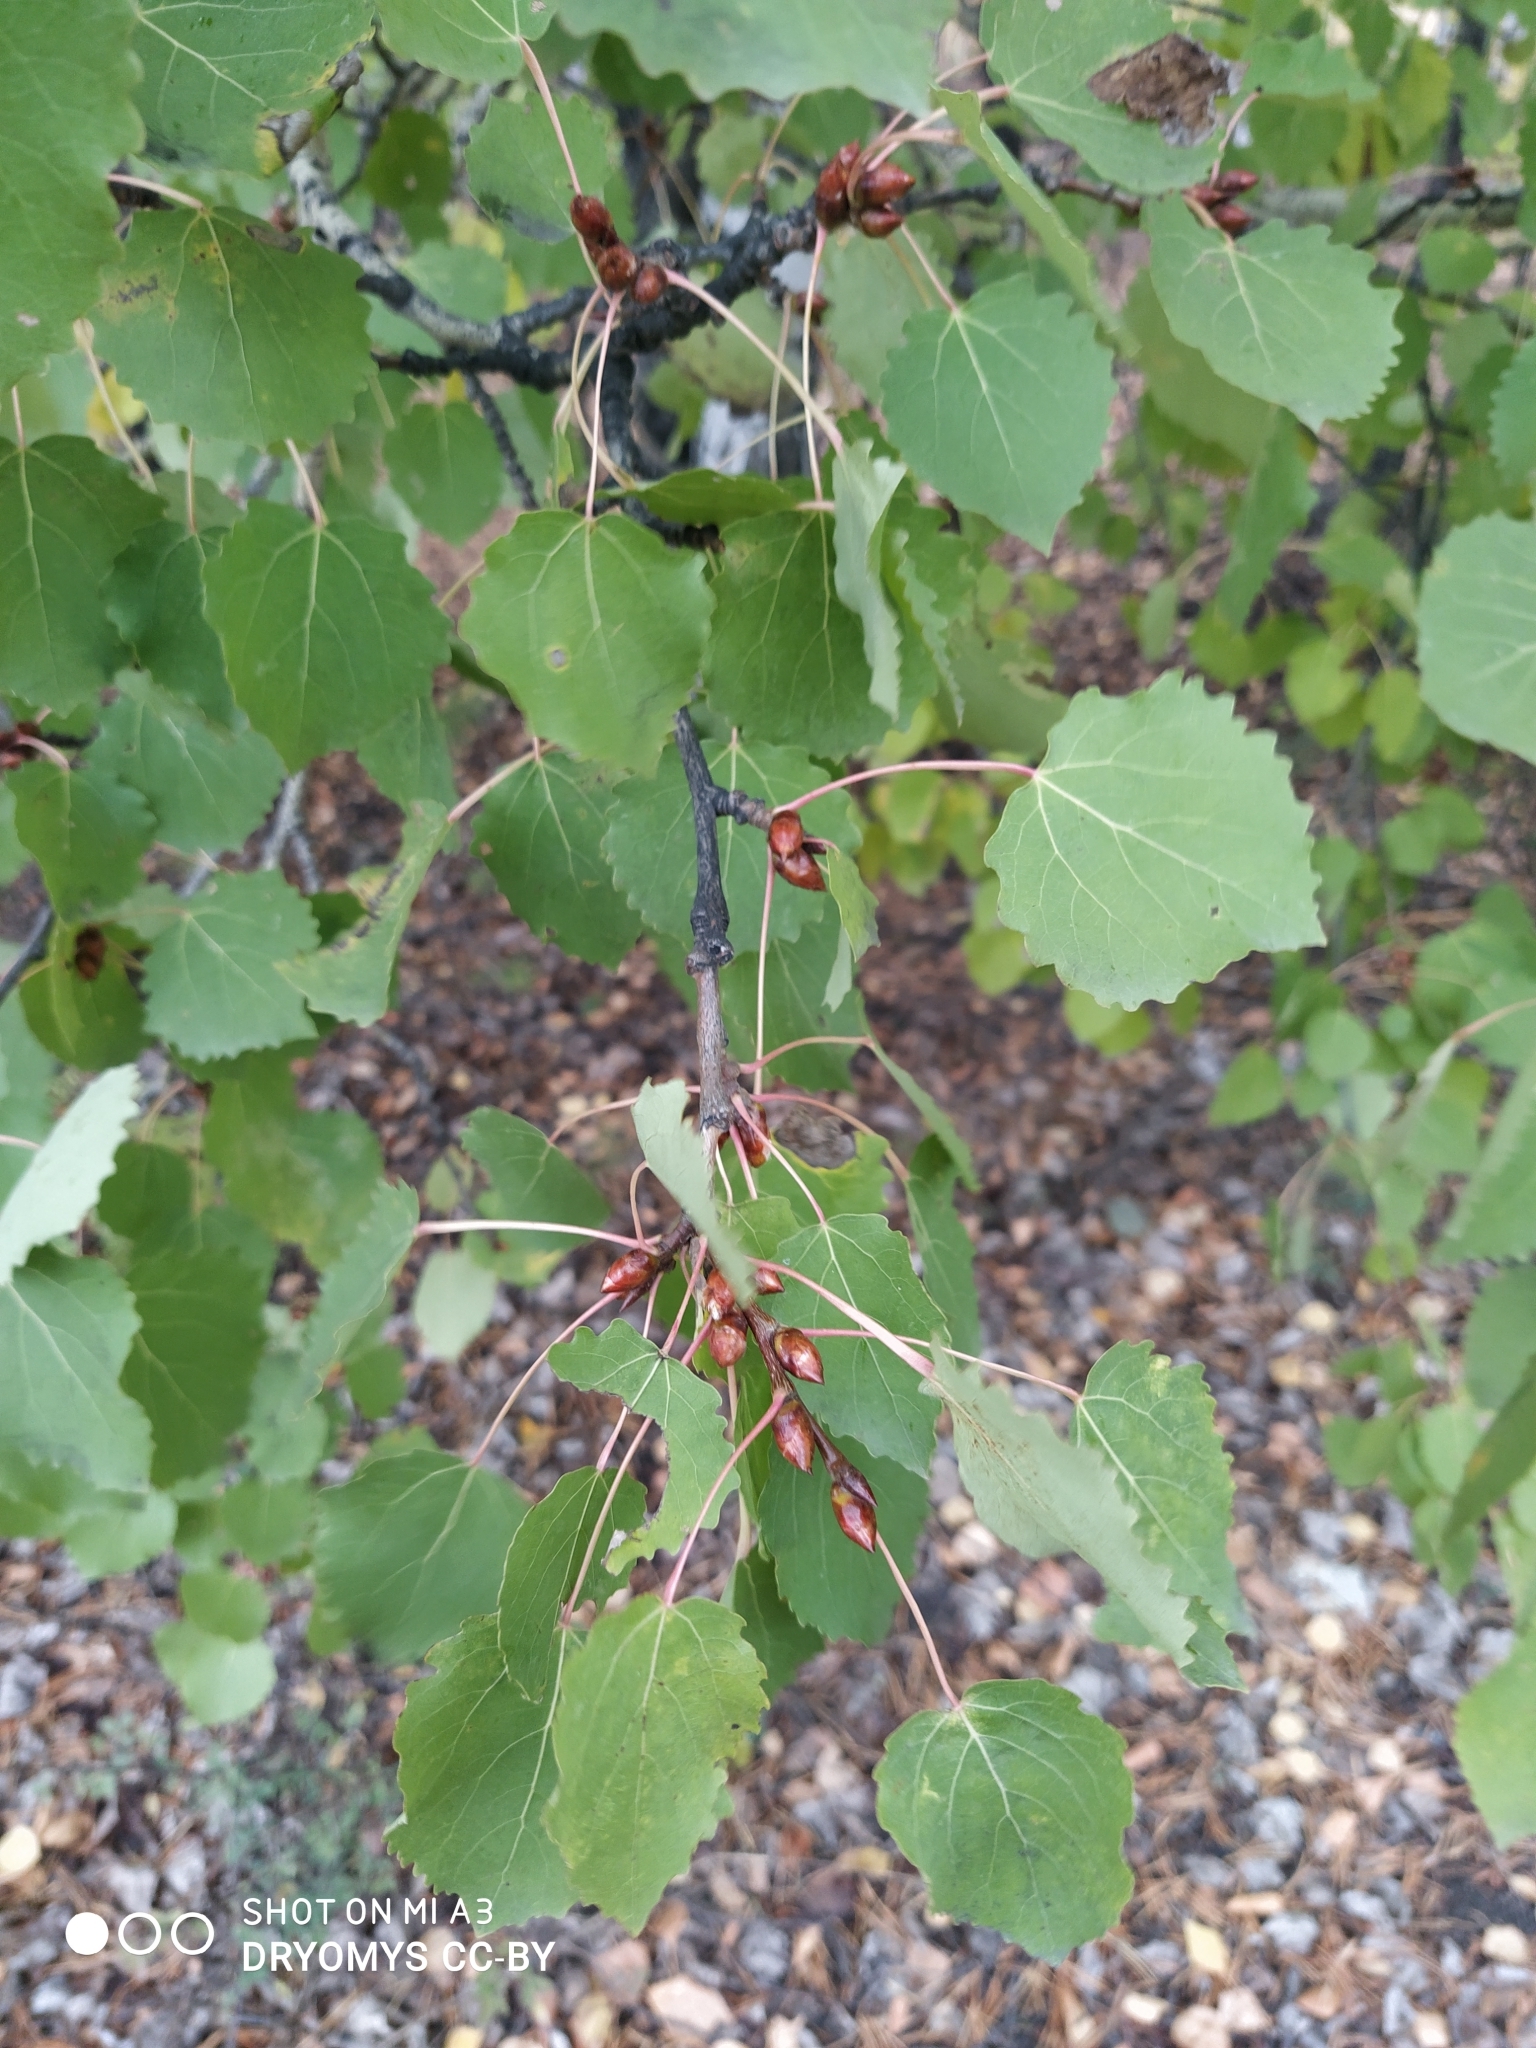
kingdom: Plantae
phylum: Tracheophyta
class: Magnoliopsida
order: Malpighiales
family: Salicaceae
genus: Populus
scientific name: Populus tremula
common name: European aspen
